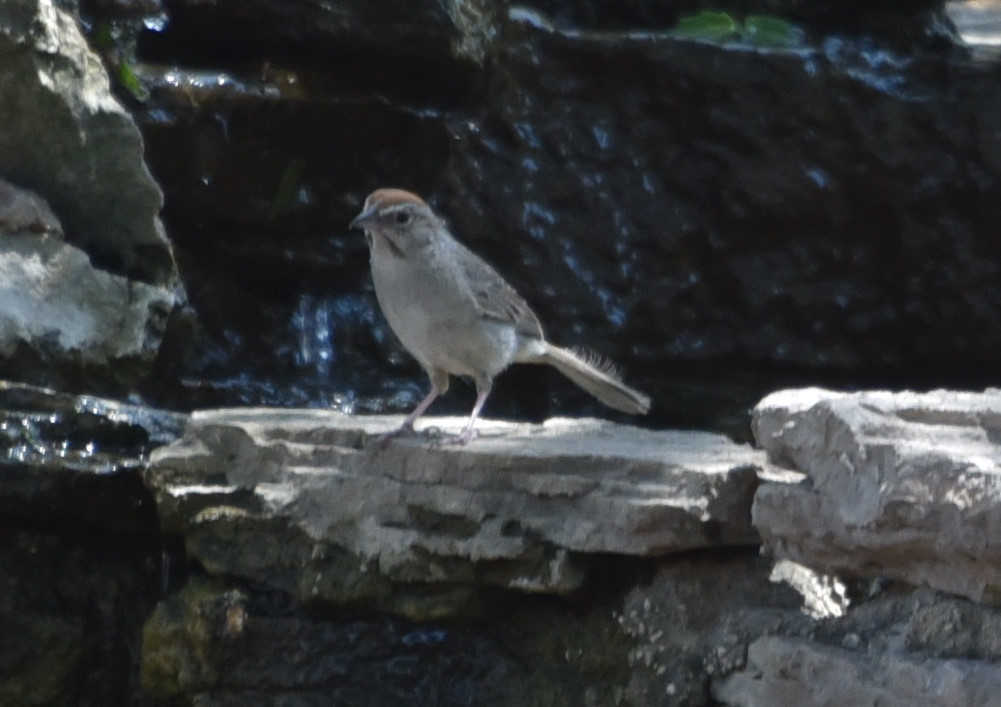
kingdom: Animalia
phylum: Chordata
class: Aves
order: Passeriformes
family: Passerellidae
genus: Aimophila
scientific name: Aimophila ruficeps
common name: Rufous-crowned sparrow
